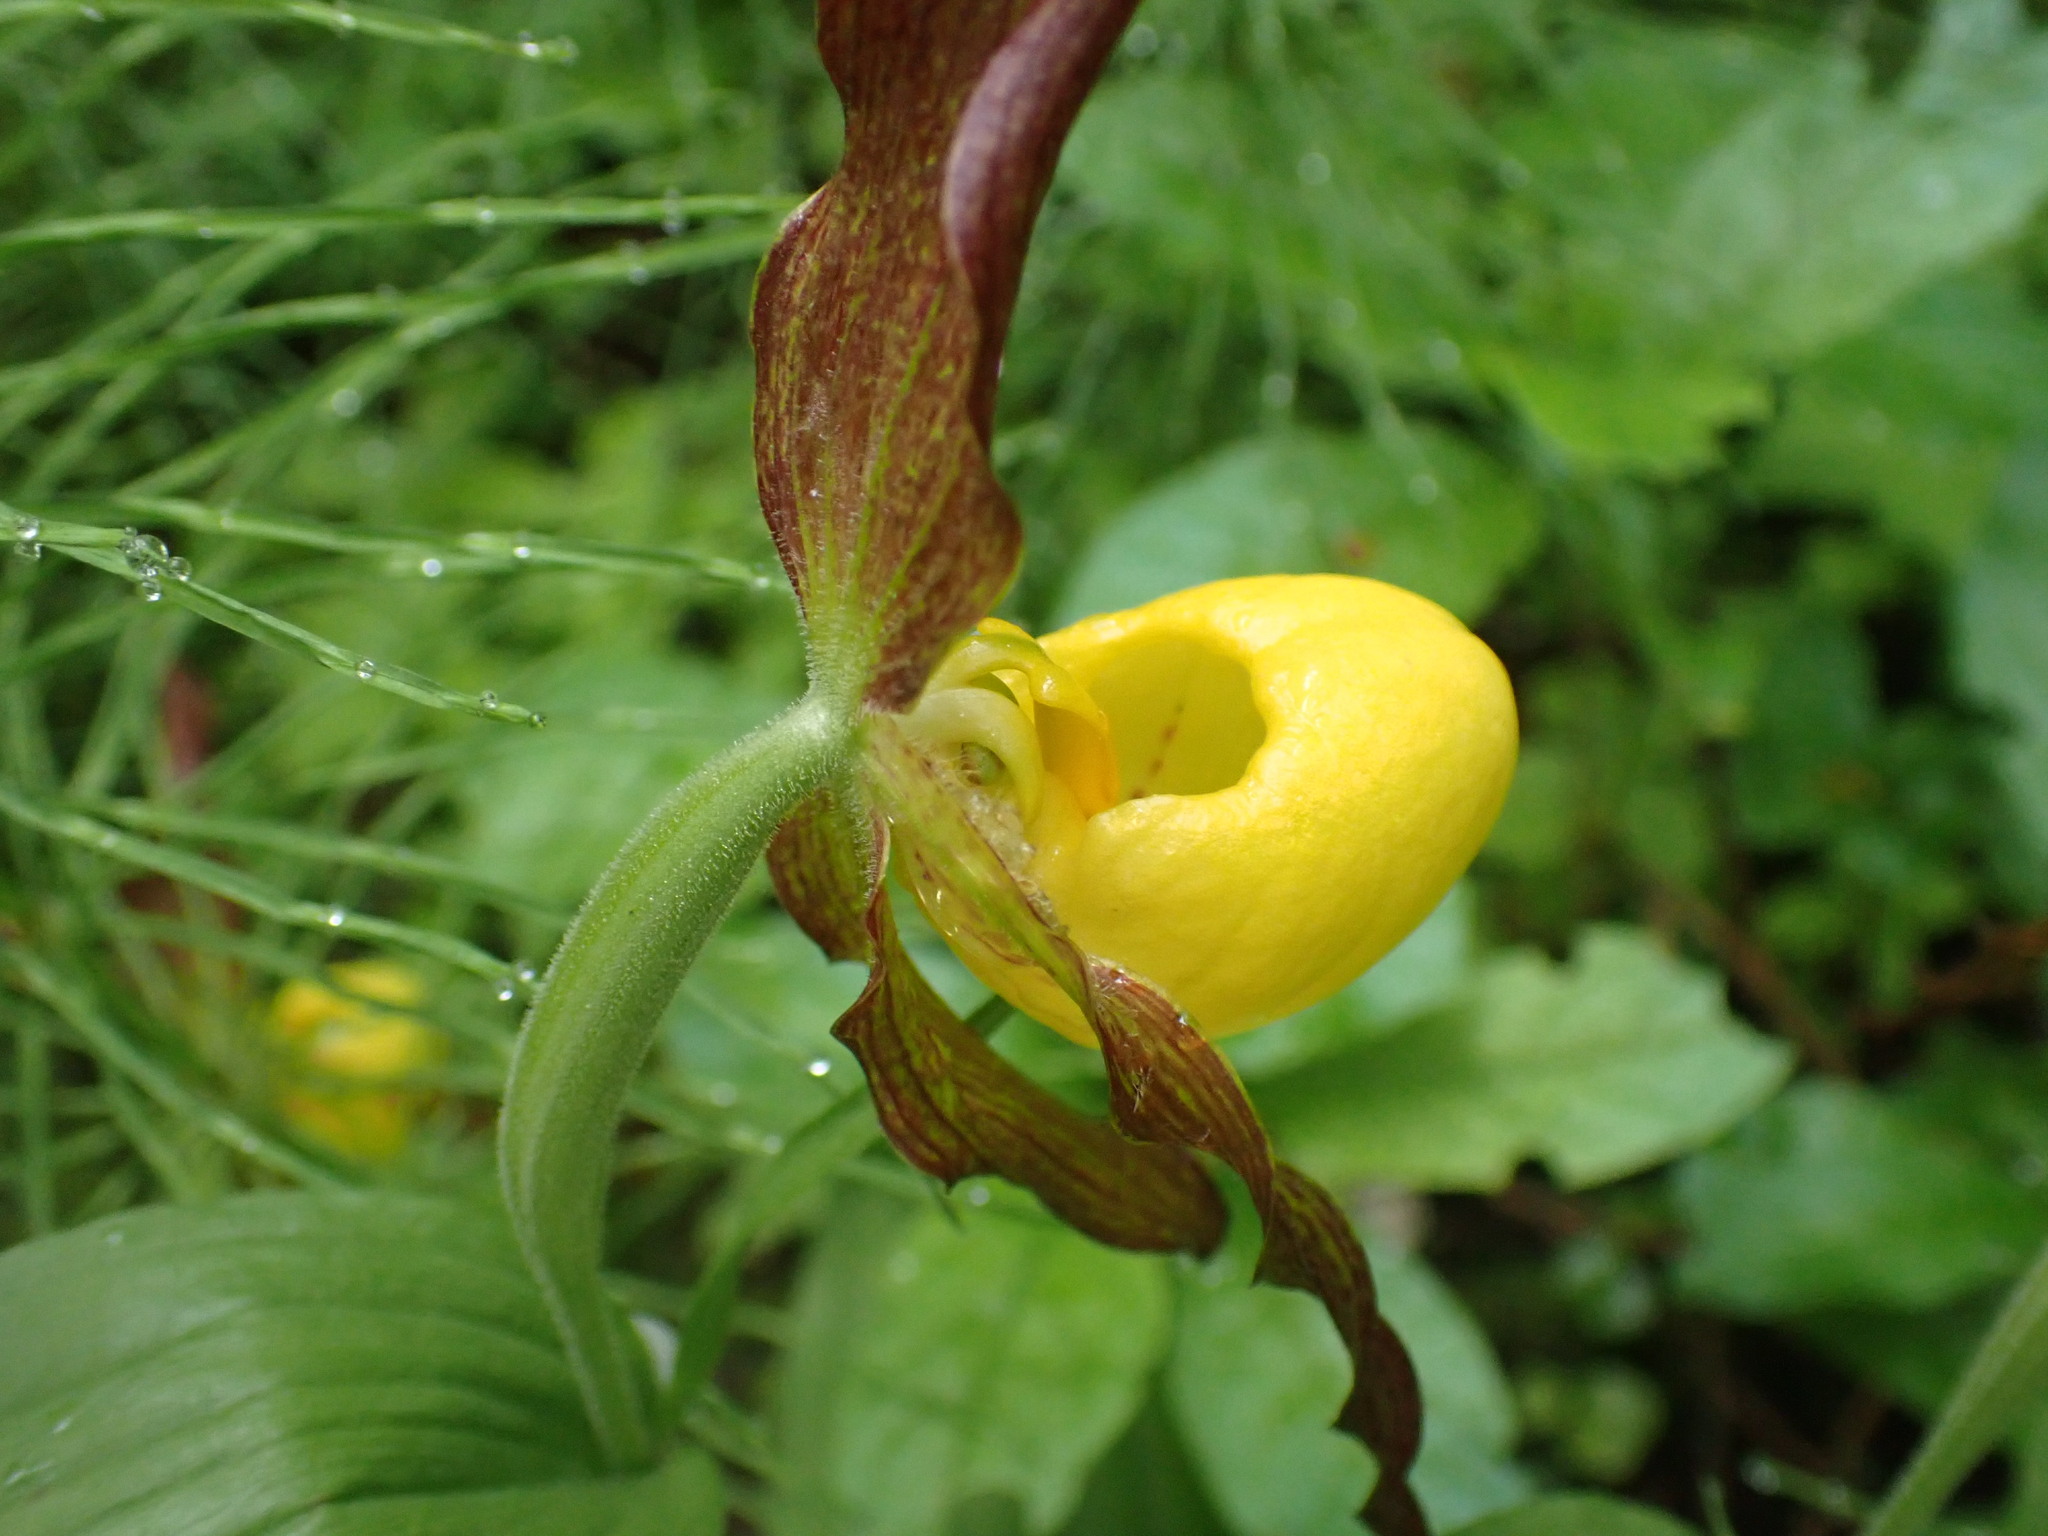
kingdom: Plantae
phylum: Tracheophyta
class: Liliopsida
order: Asparagales
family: Orchidaceae
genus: Cypripedium
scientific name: Cypripedium parviflorum
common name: American yellow lady's-slipper
